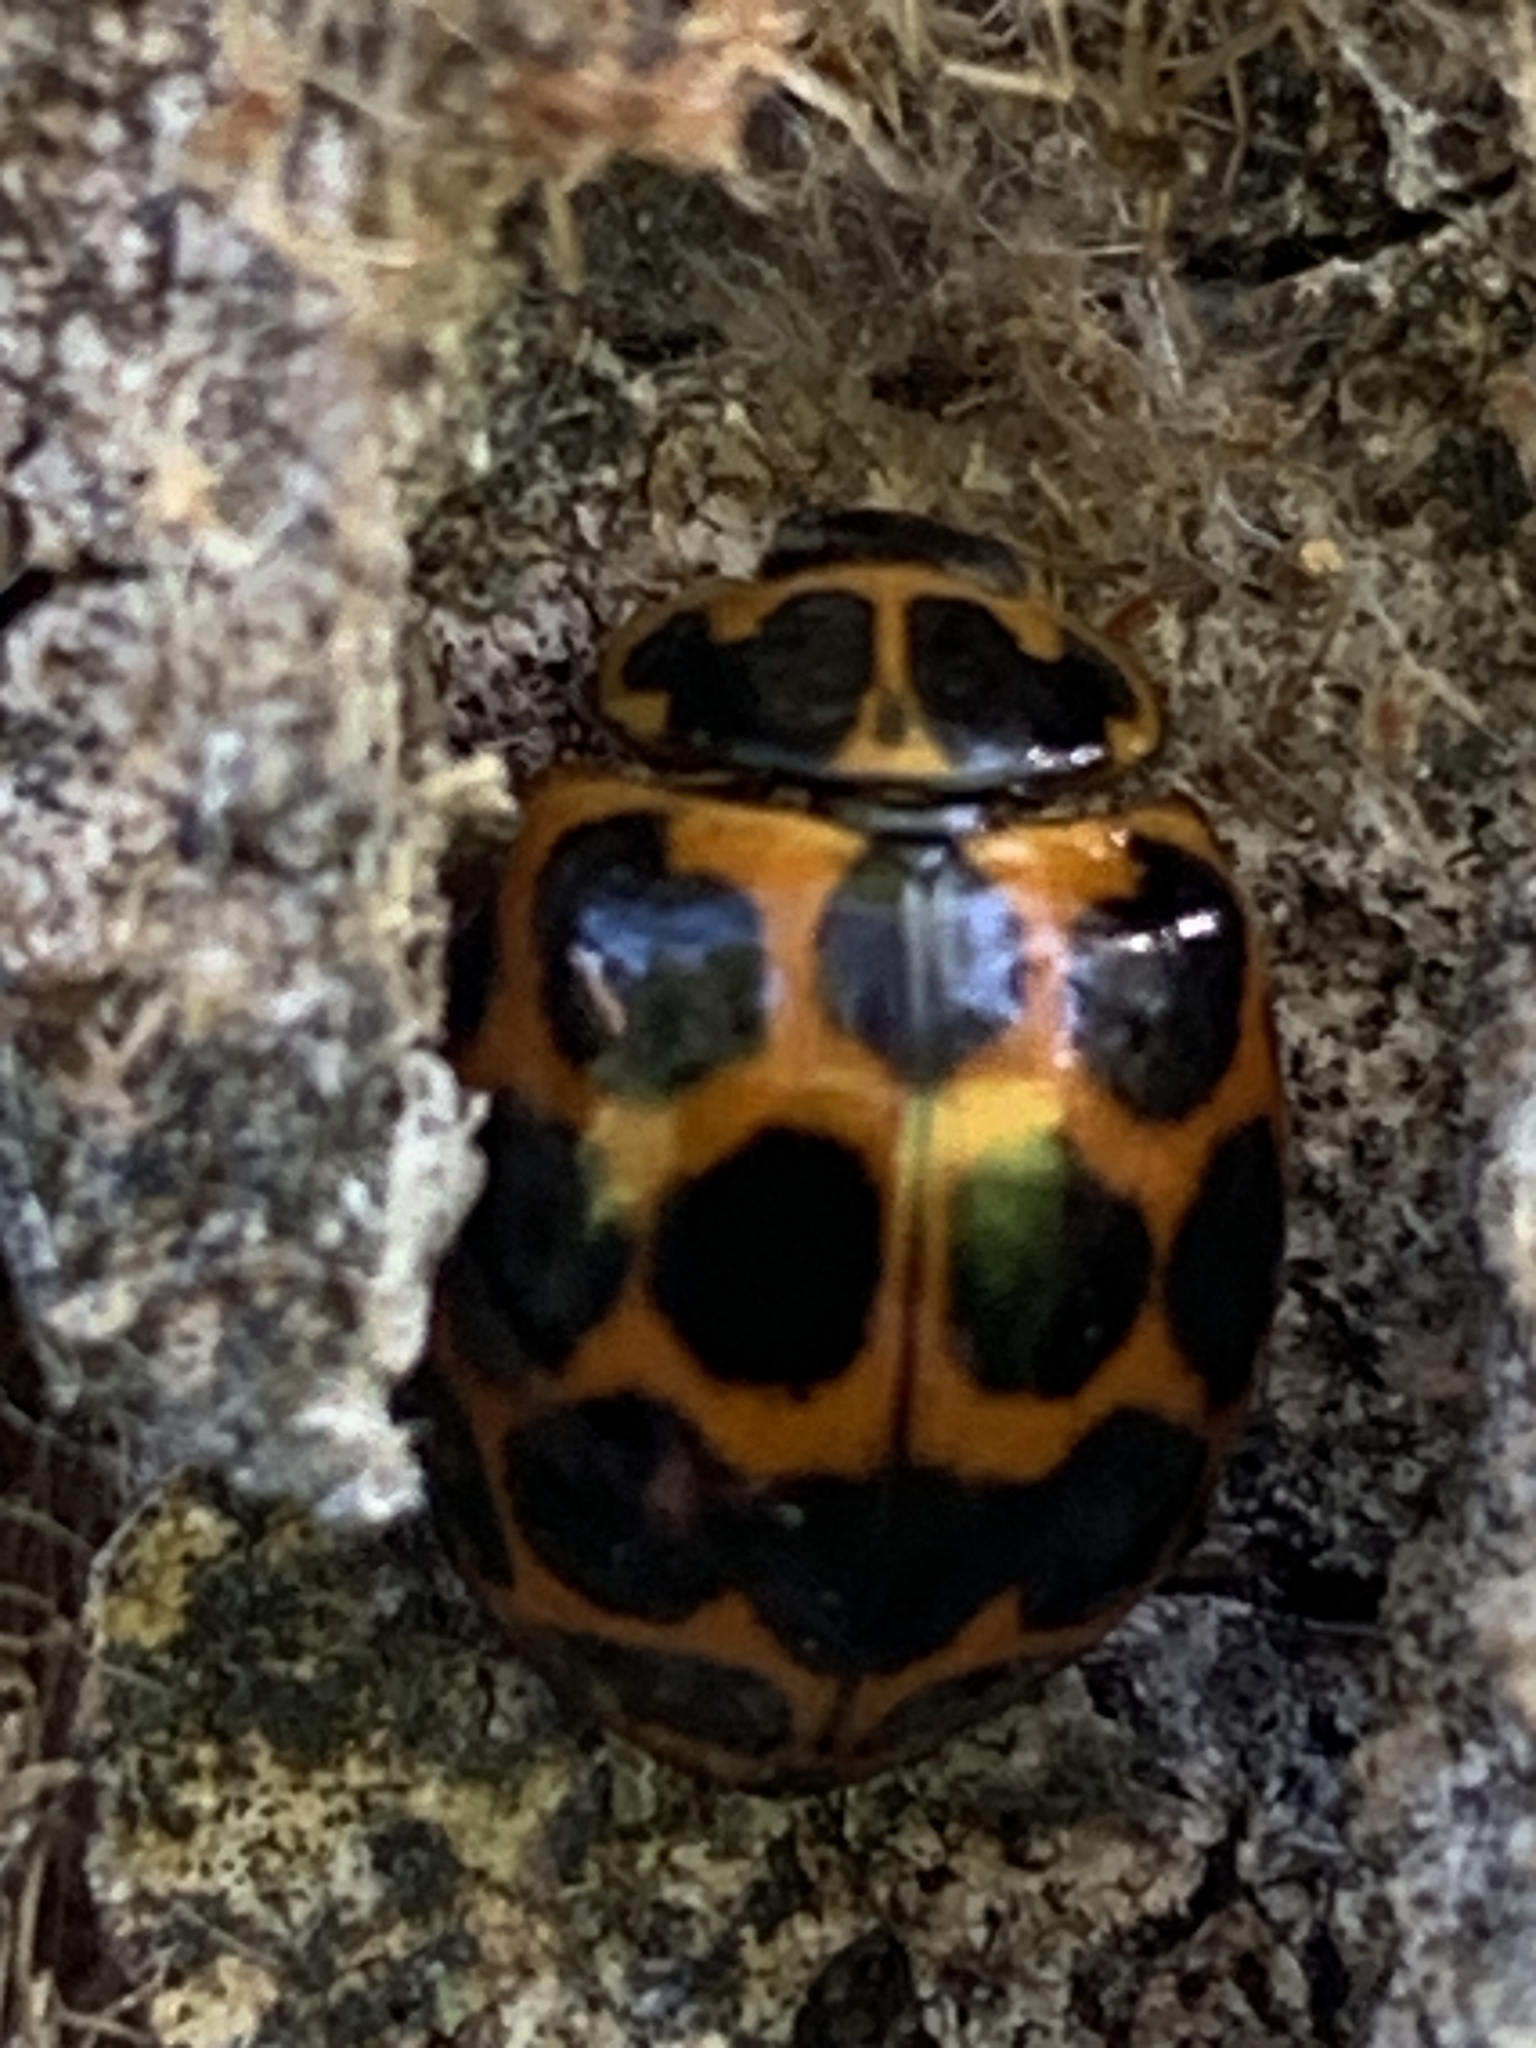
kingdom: Animalia
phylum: Arthropoda
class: Insecta
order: Coleoptera
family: Coccinellidae
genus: Harmonia
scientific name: Harmonia conformis
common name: Common spotted ladybird beetle
